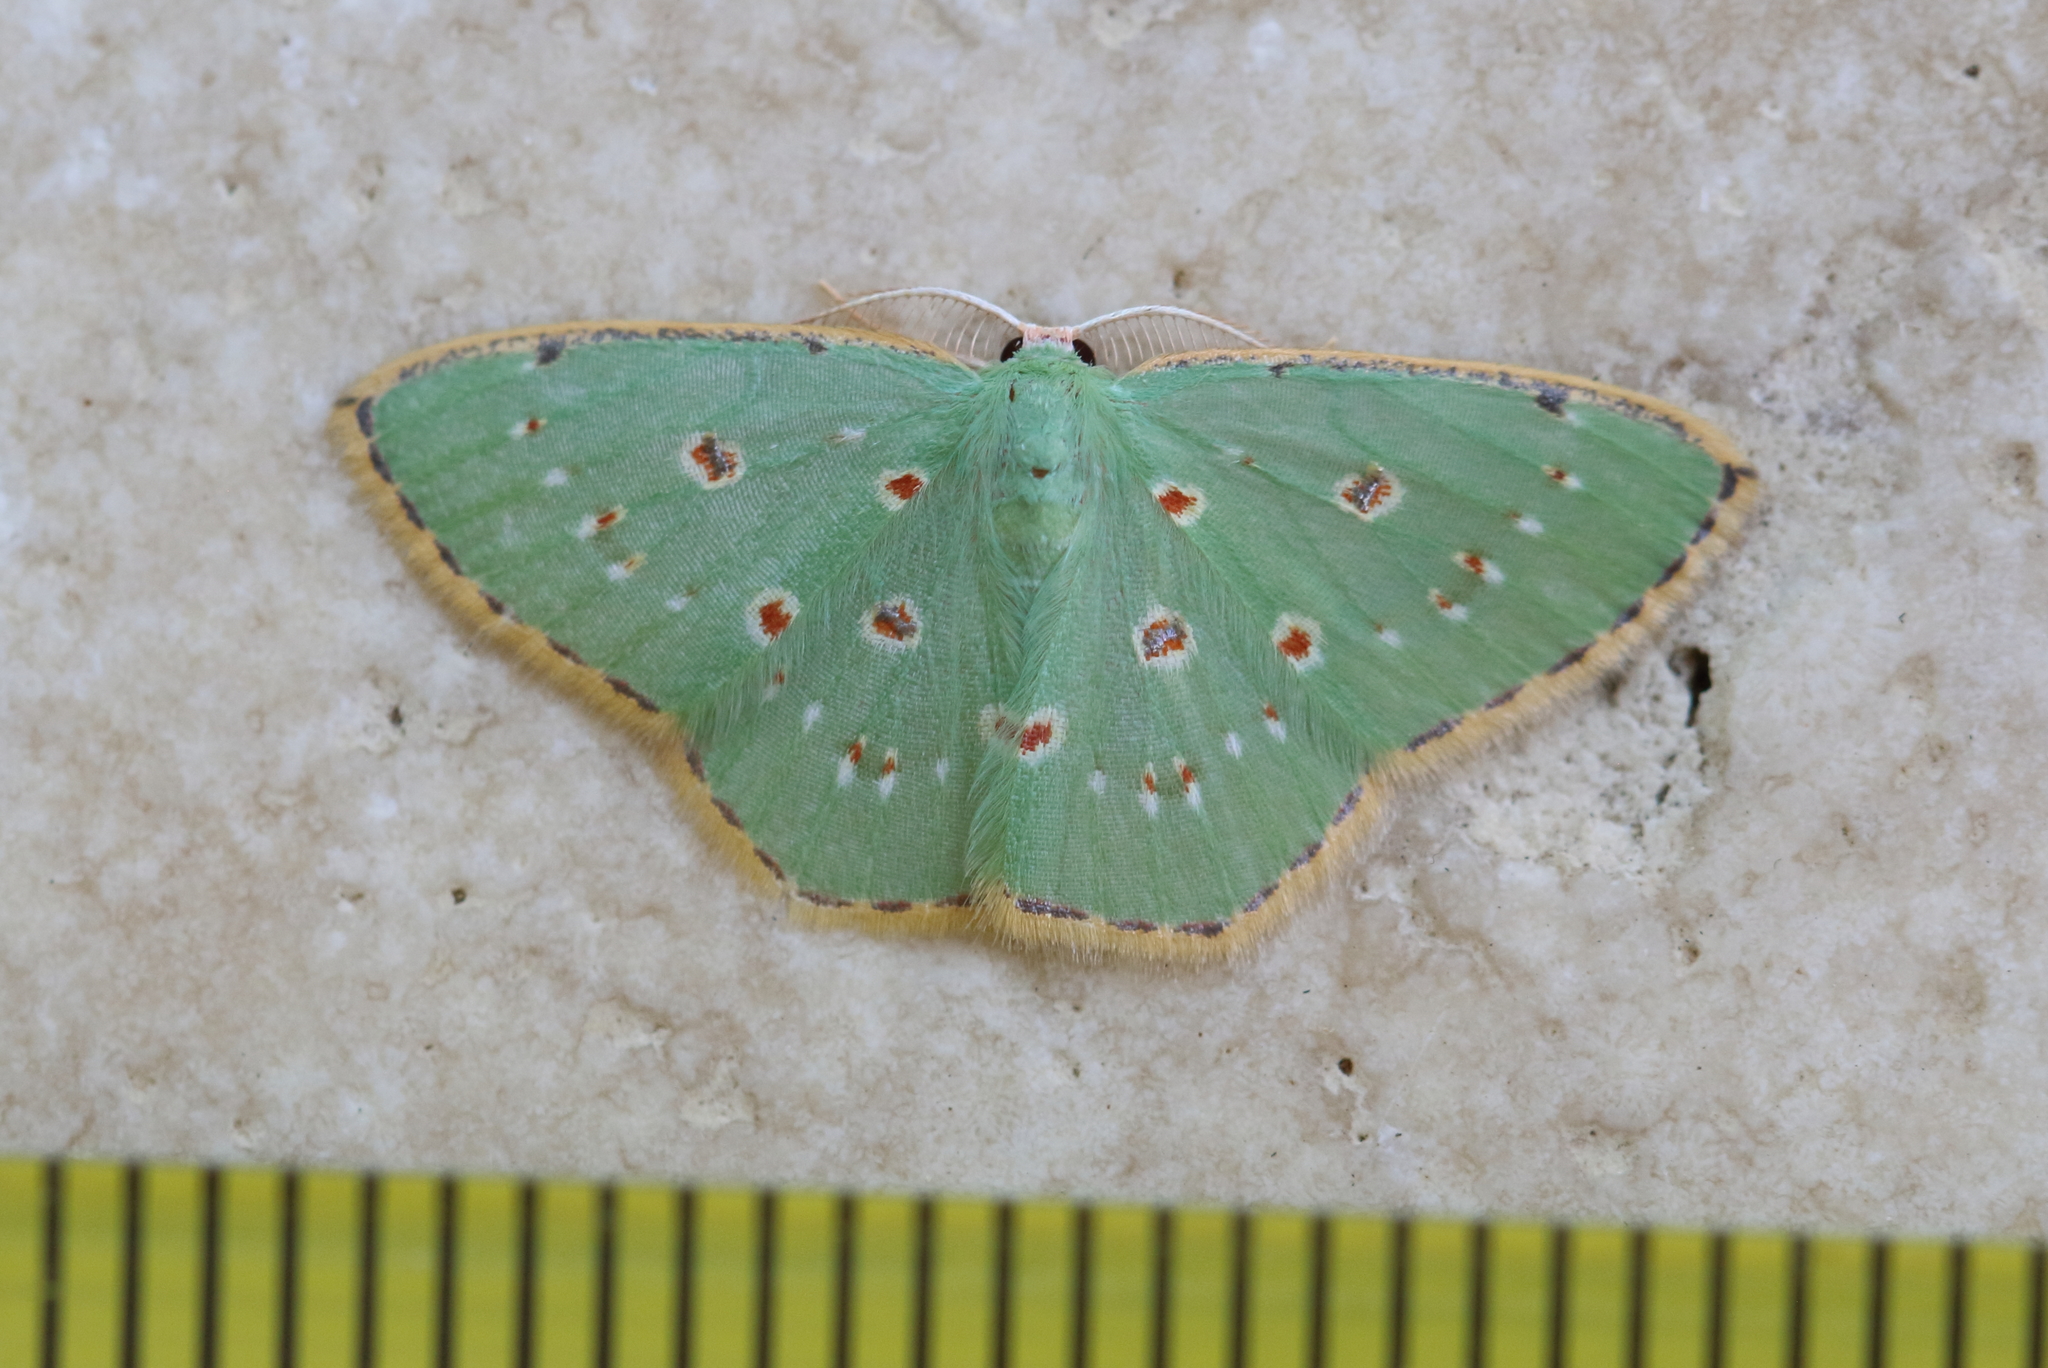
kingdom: Animalia
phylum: Arthropoda
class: Insecta
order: Lepidoptera
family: Geometridae
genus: Comostola
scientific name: Comostola laesaria
